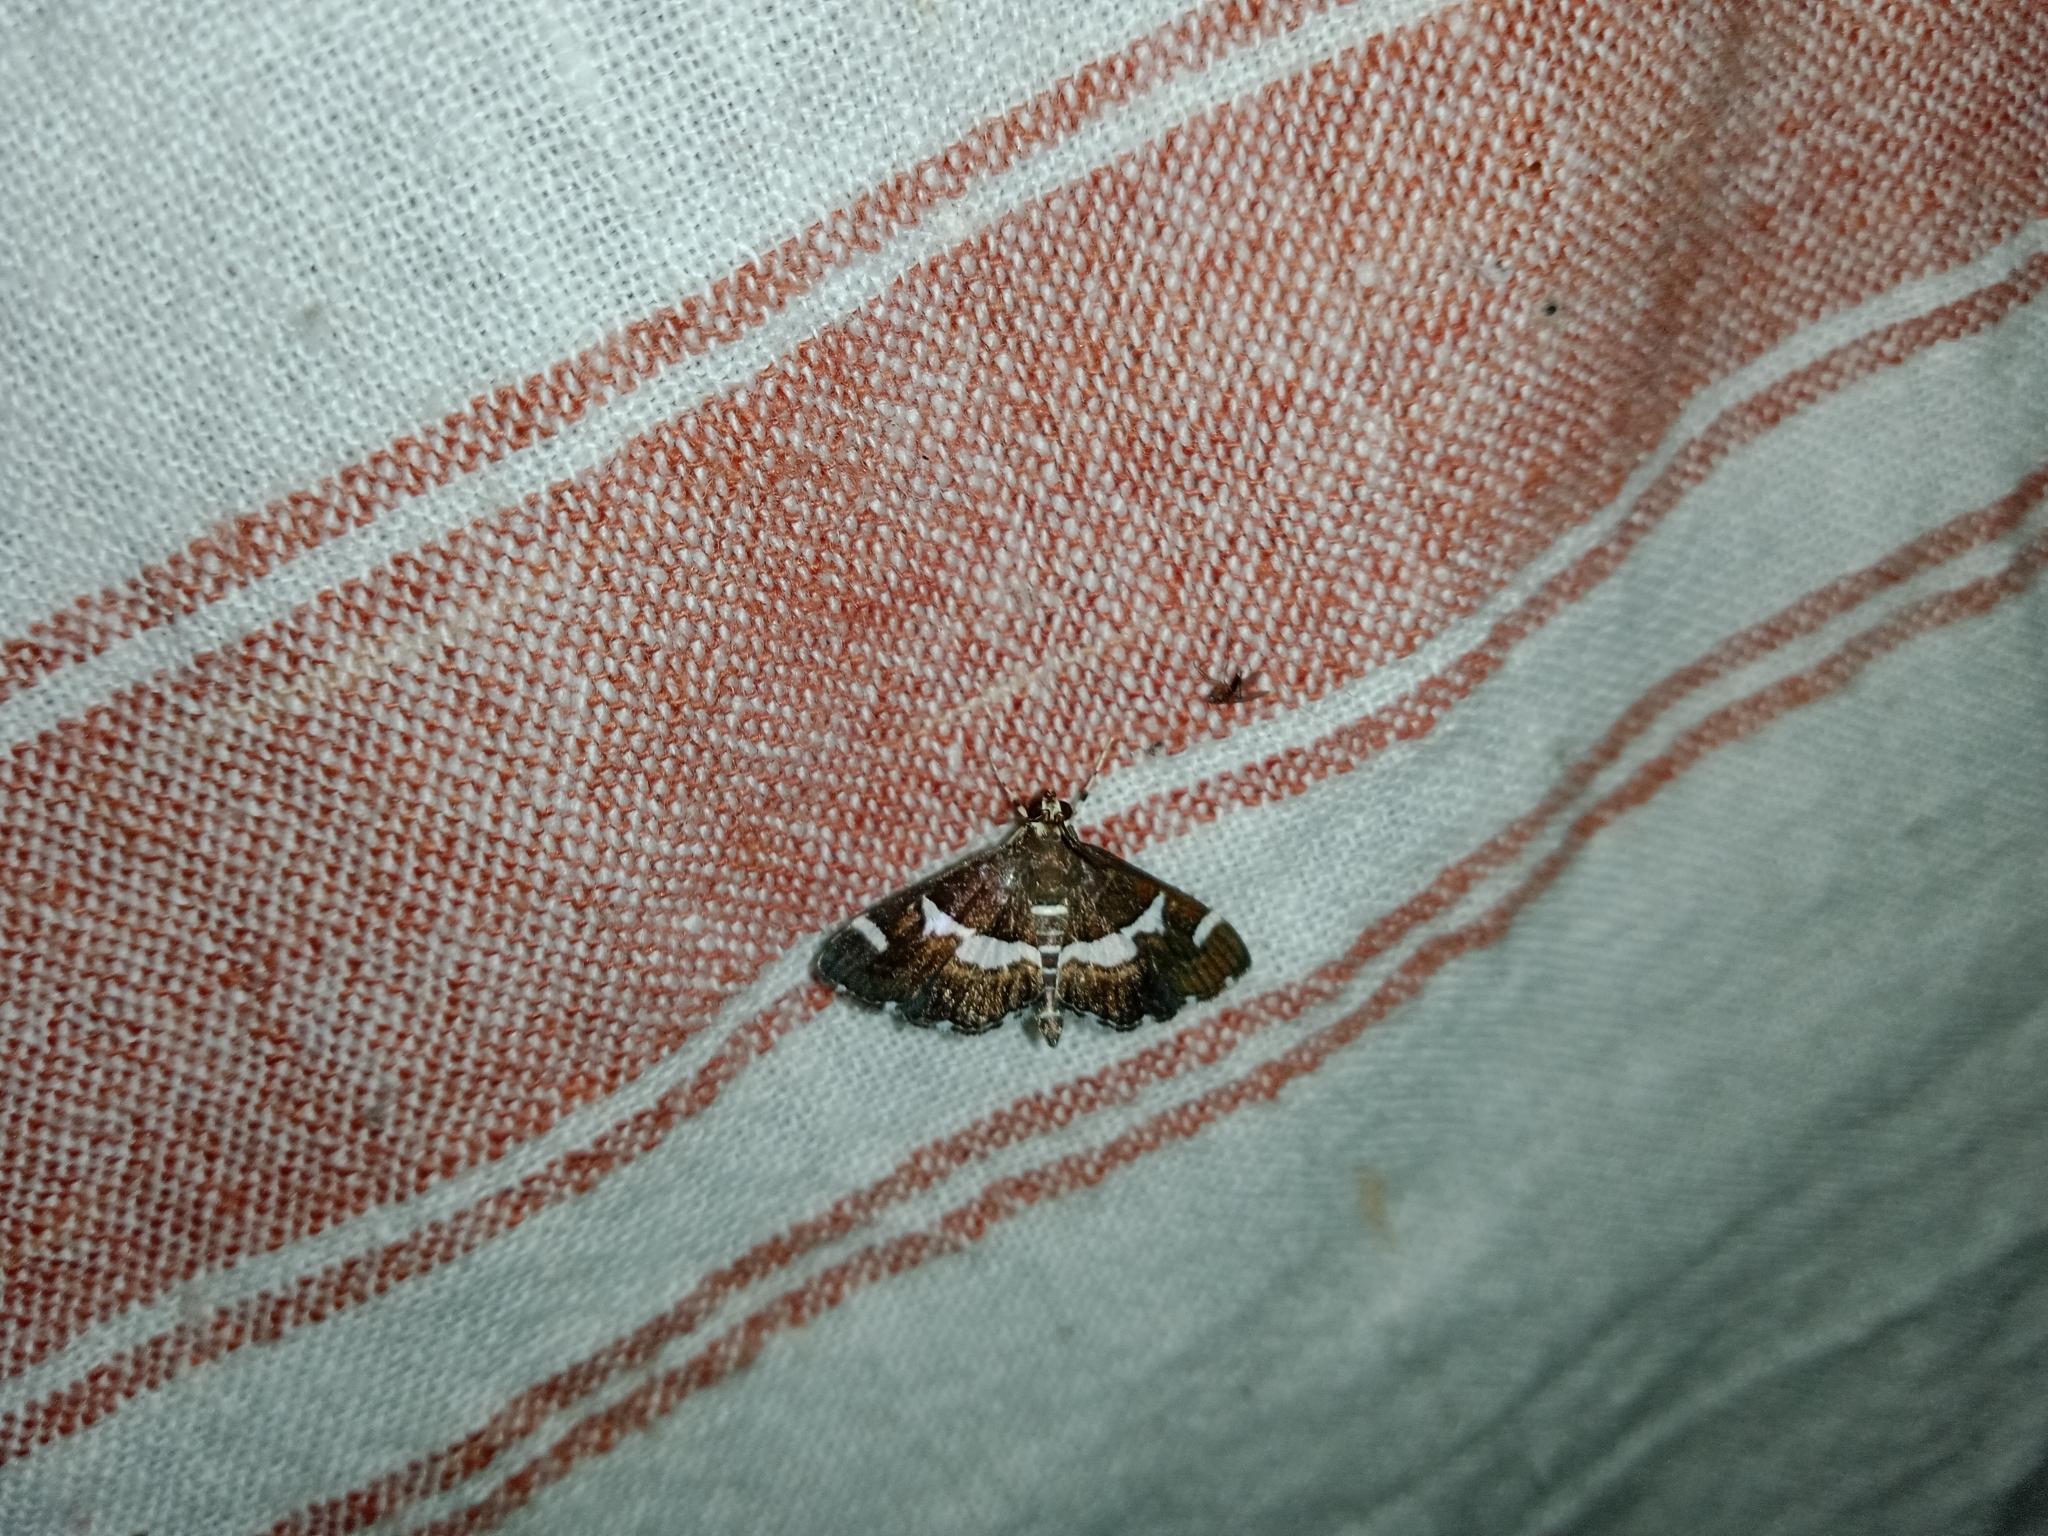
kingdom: Animalia
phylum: Arthropoda
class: Insecta
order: Lepidoptera
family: Crambidae
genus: Spoladea
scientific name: Spoladea recurvalis
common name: Beet webworm moth
